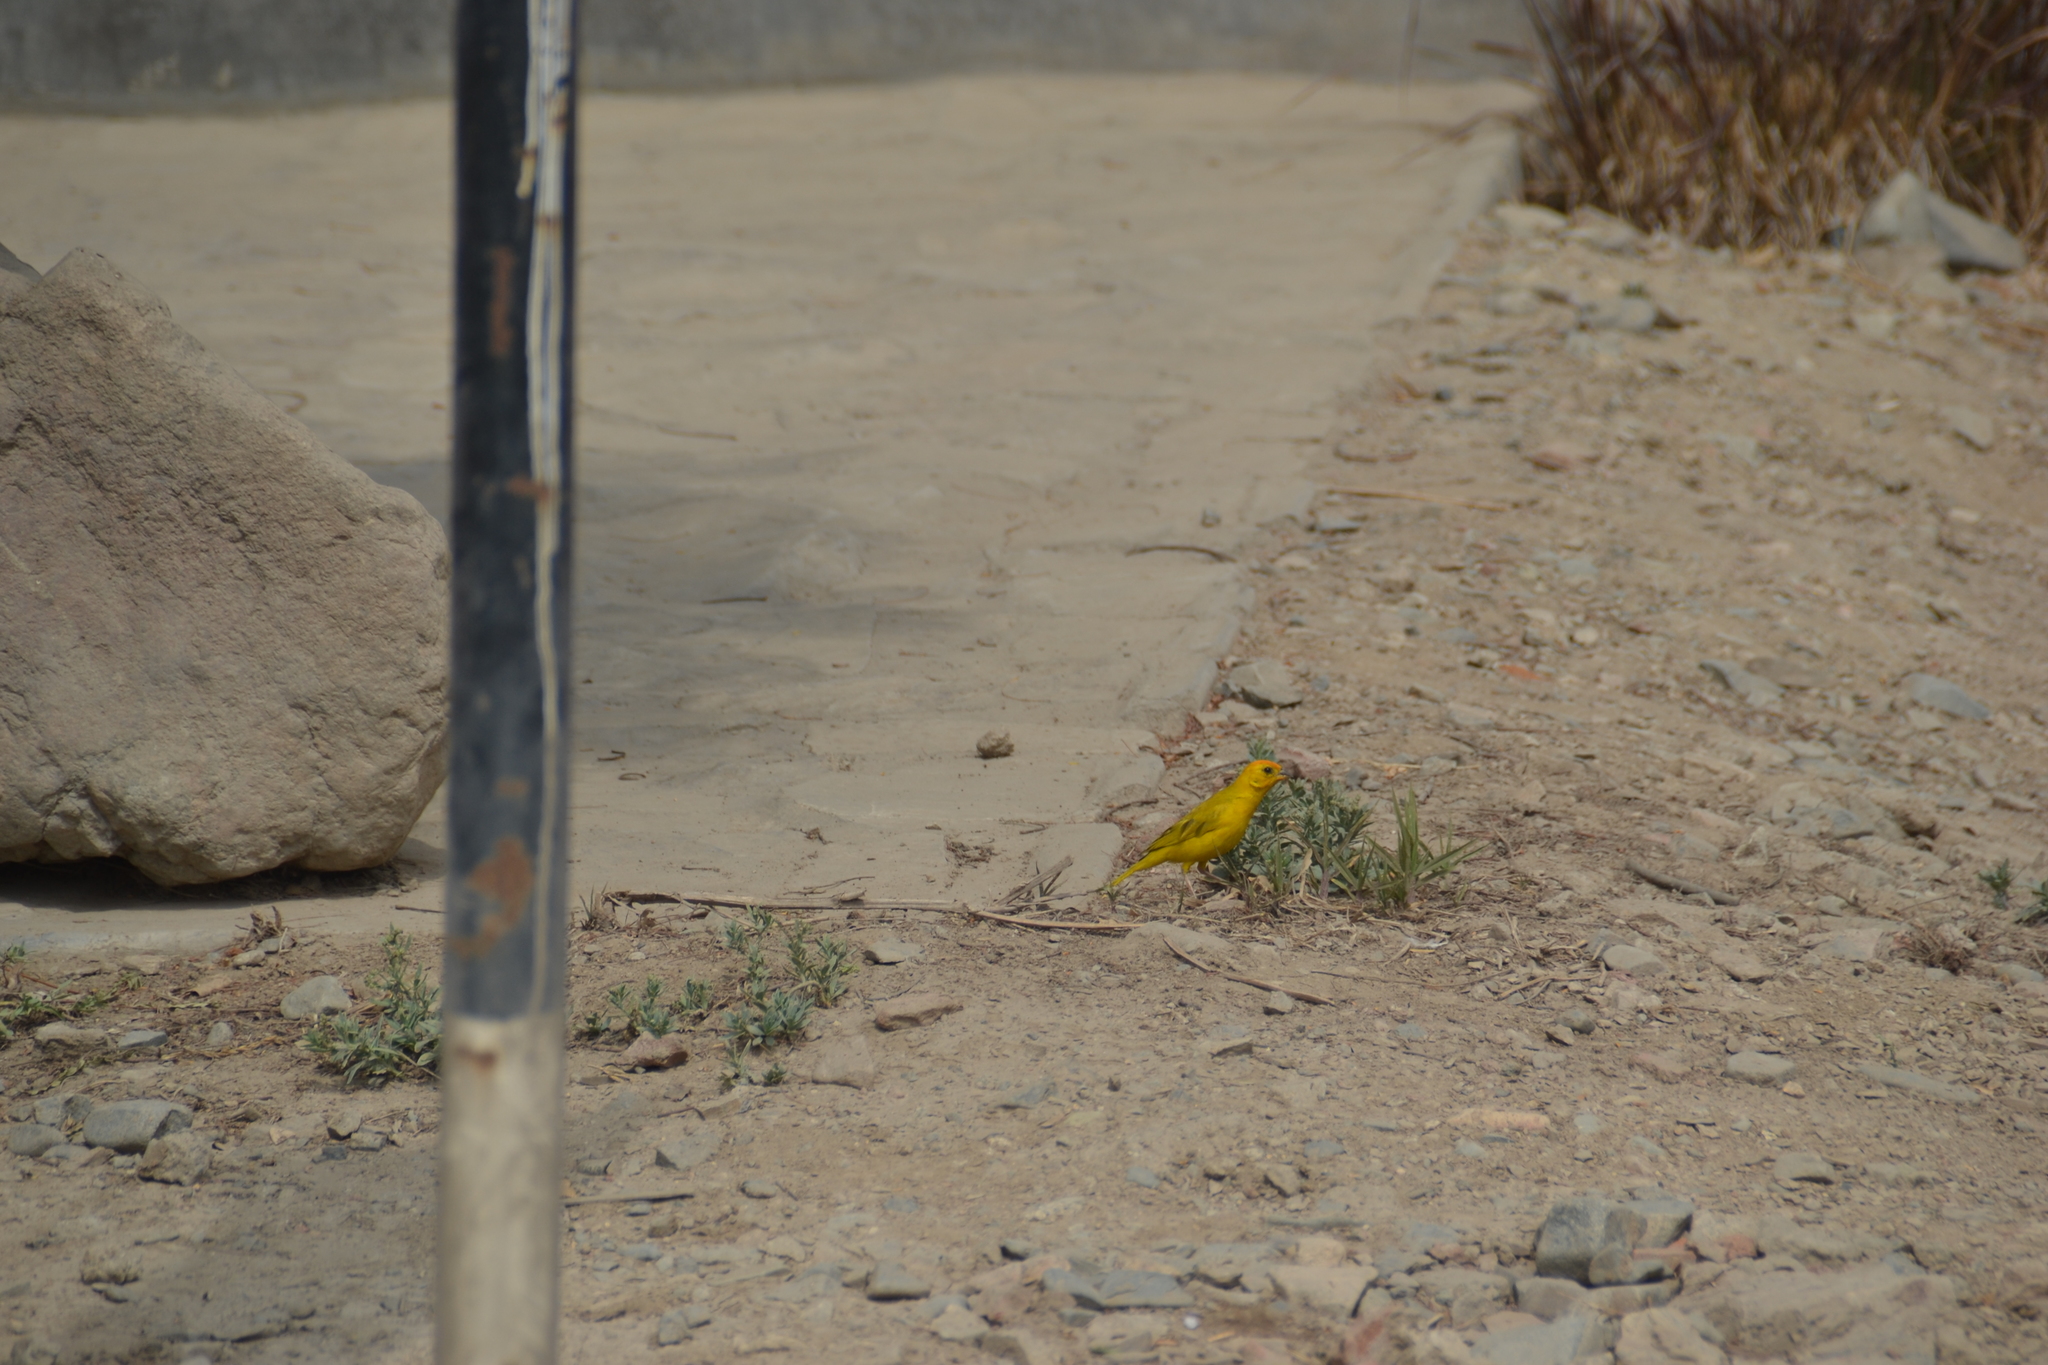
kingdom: Animalia
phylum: Chordata
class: Aves
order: Passeriformes
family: Thraupidae
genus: Sicalis
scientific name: Sicalis flaveola
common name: Saffron finch
